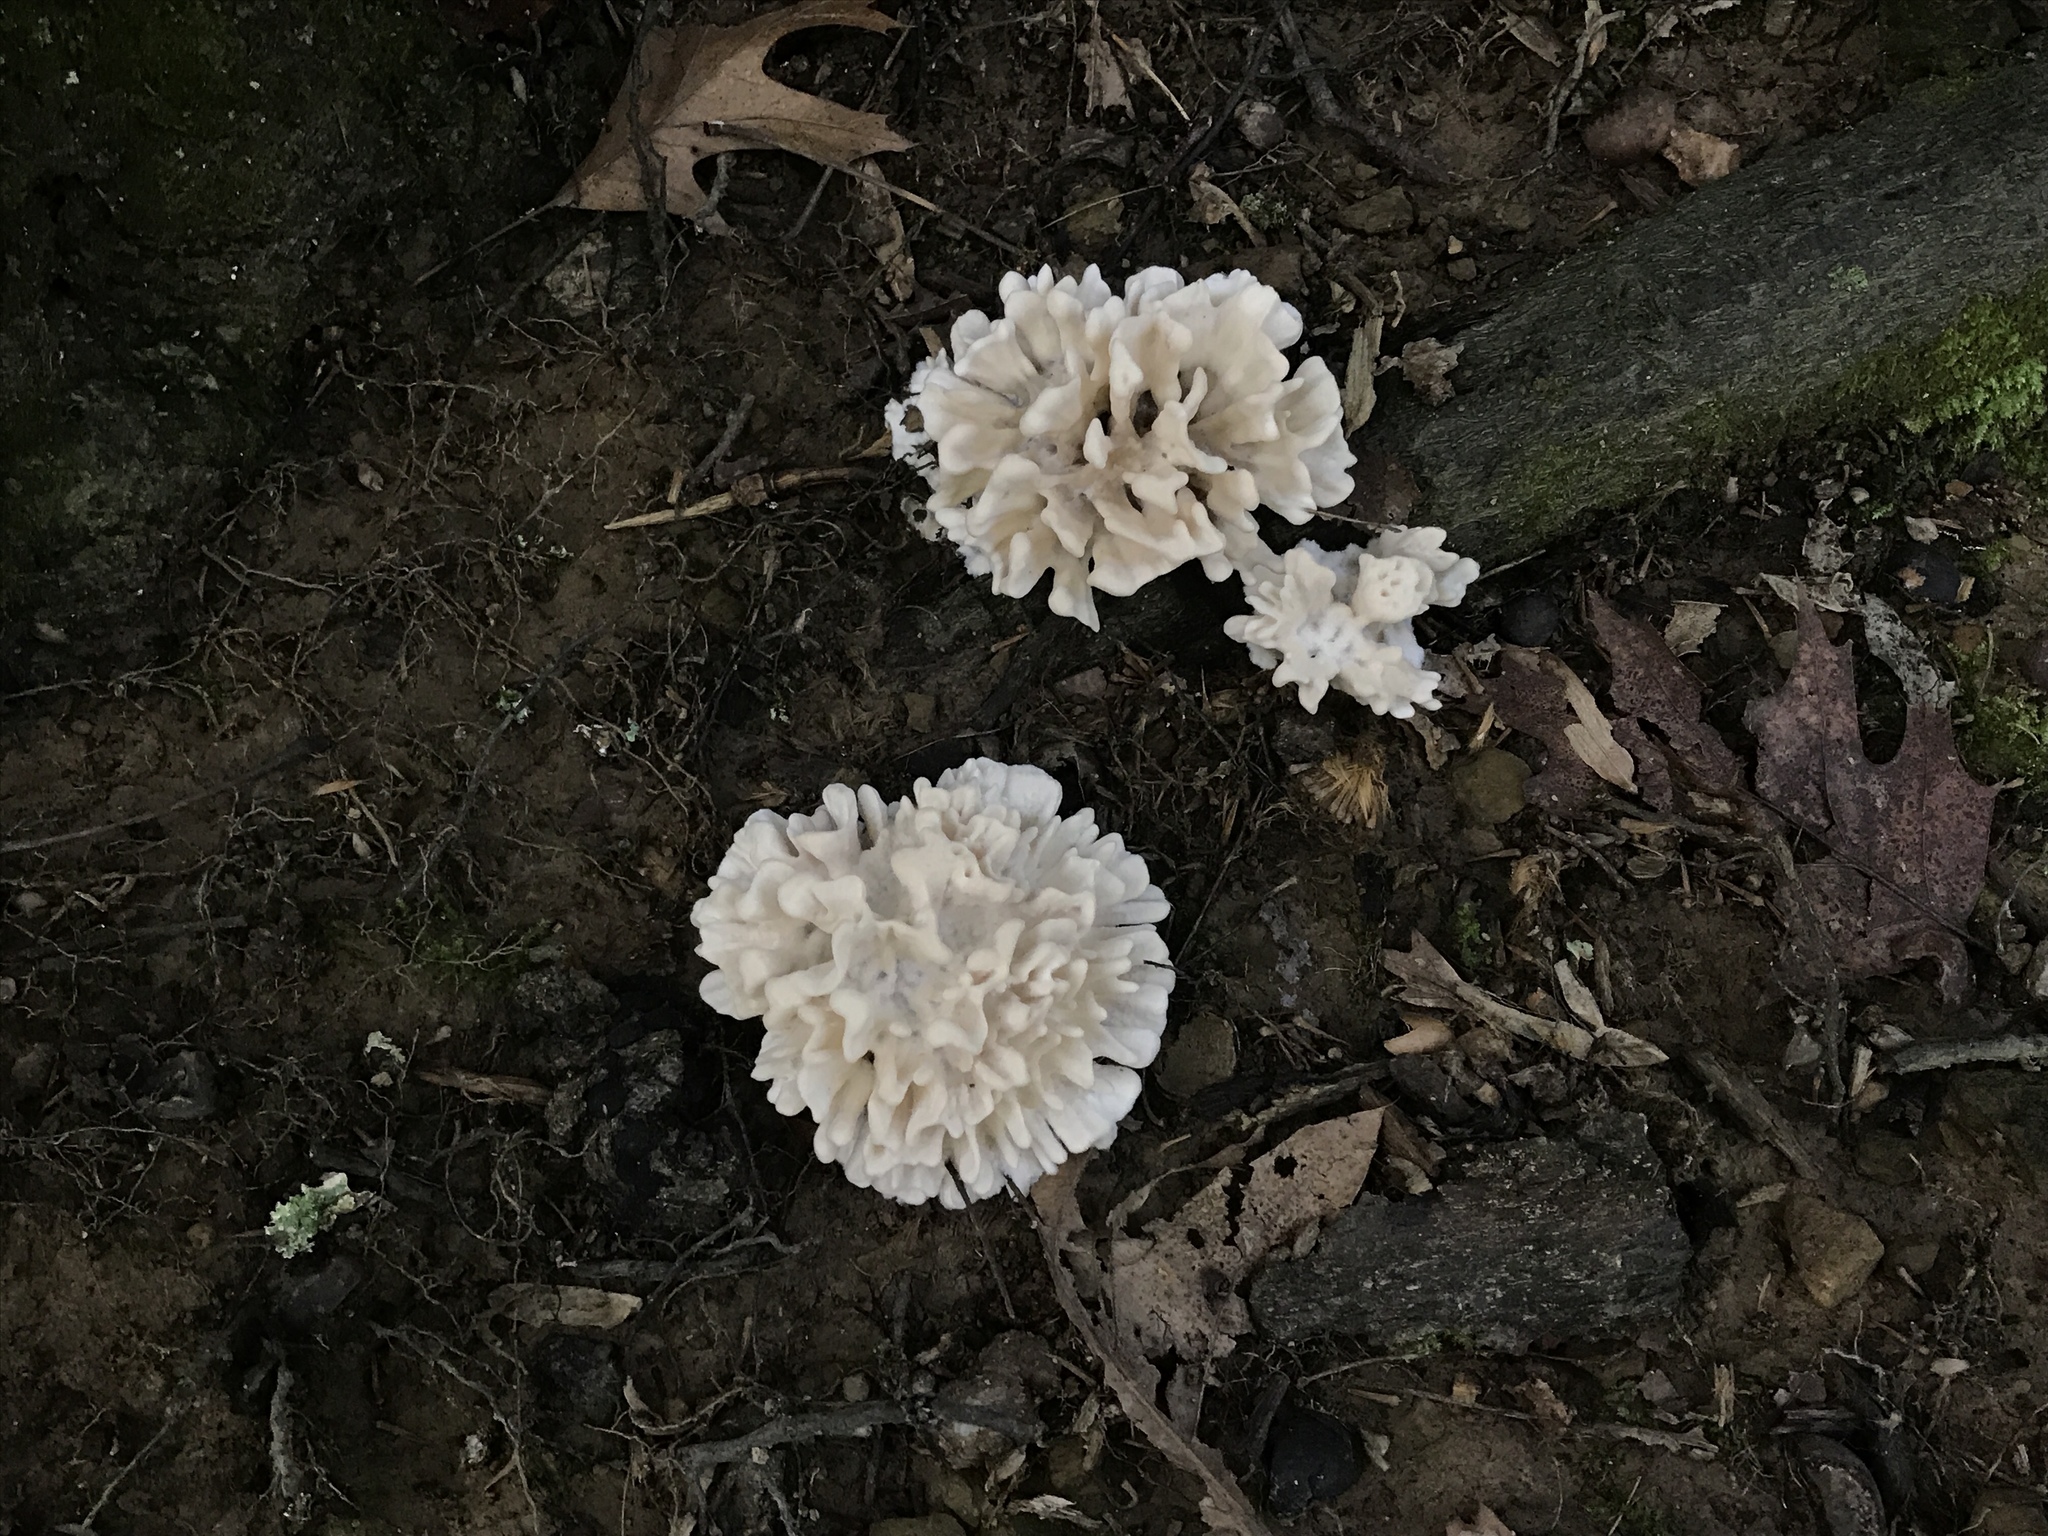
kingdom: Fungi
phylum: Basidiomycota
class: Agaricomycetes
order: Polyporales
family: Sparassidaceae
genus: Sparassis
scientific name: Sparassis spathulata
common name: Eastern cauliflower mushroom
